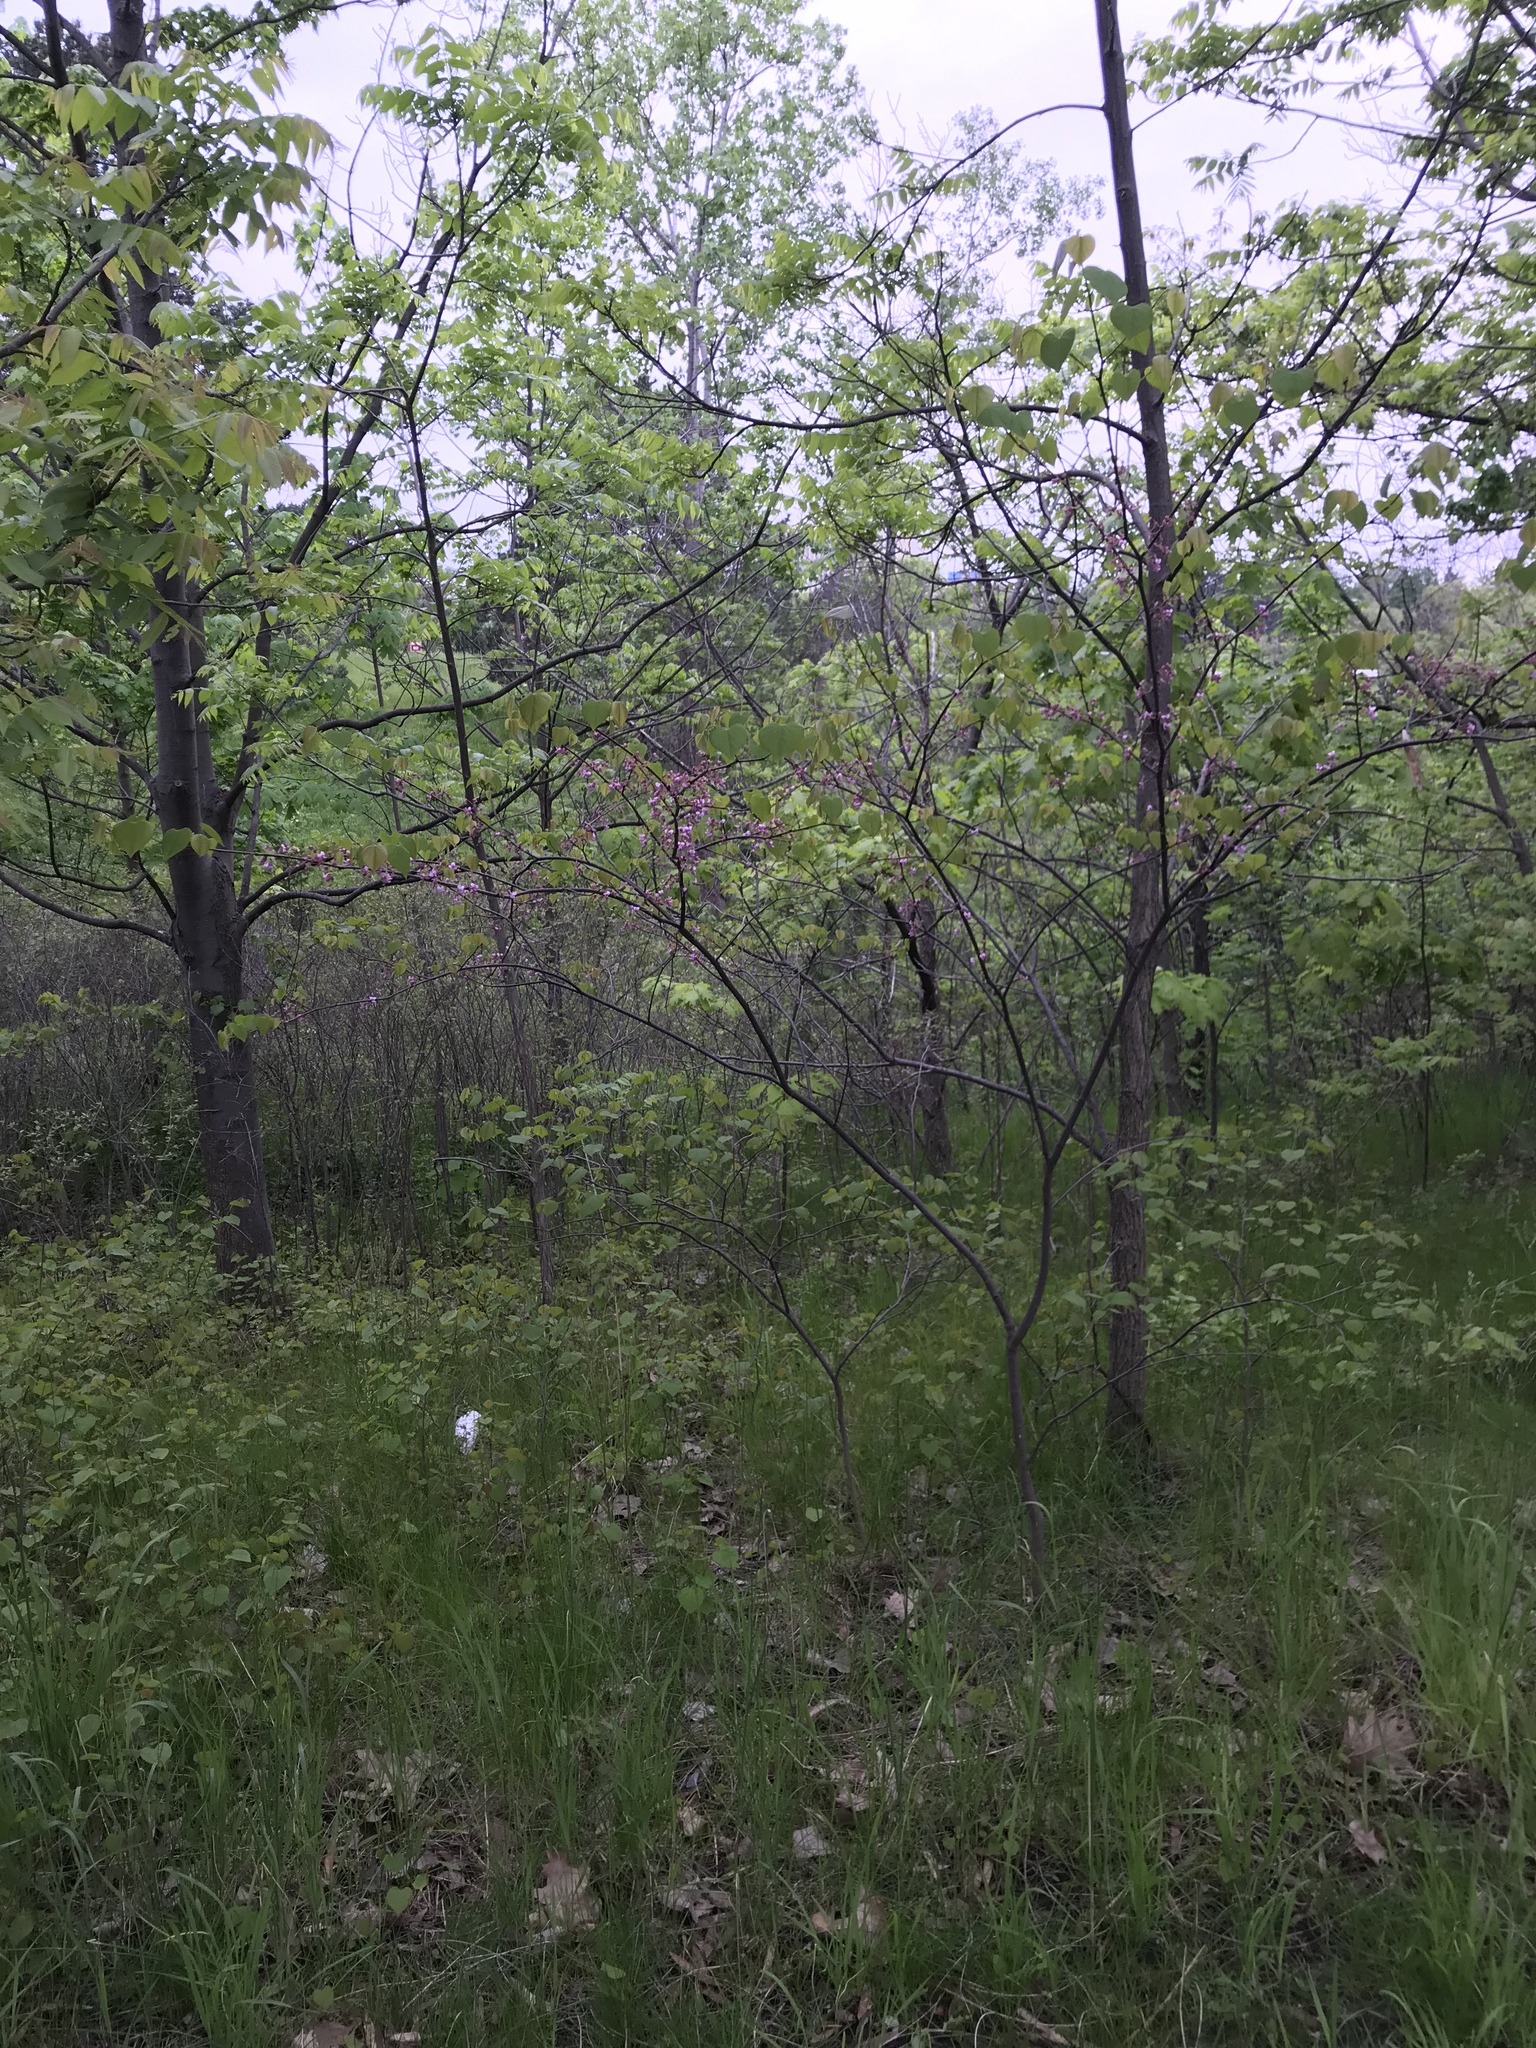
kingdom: Plantae
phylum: Tracheophyta
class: Magnoliopsida
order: Fabales
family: Fabaceae
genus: Cercis
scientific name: Cercis canadensis
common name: Eastern redbud
